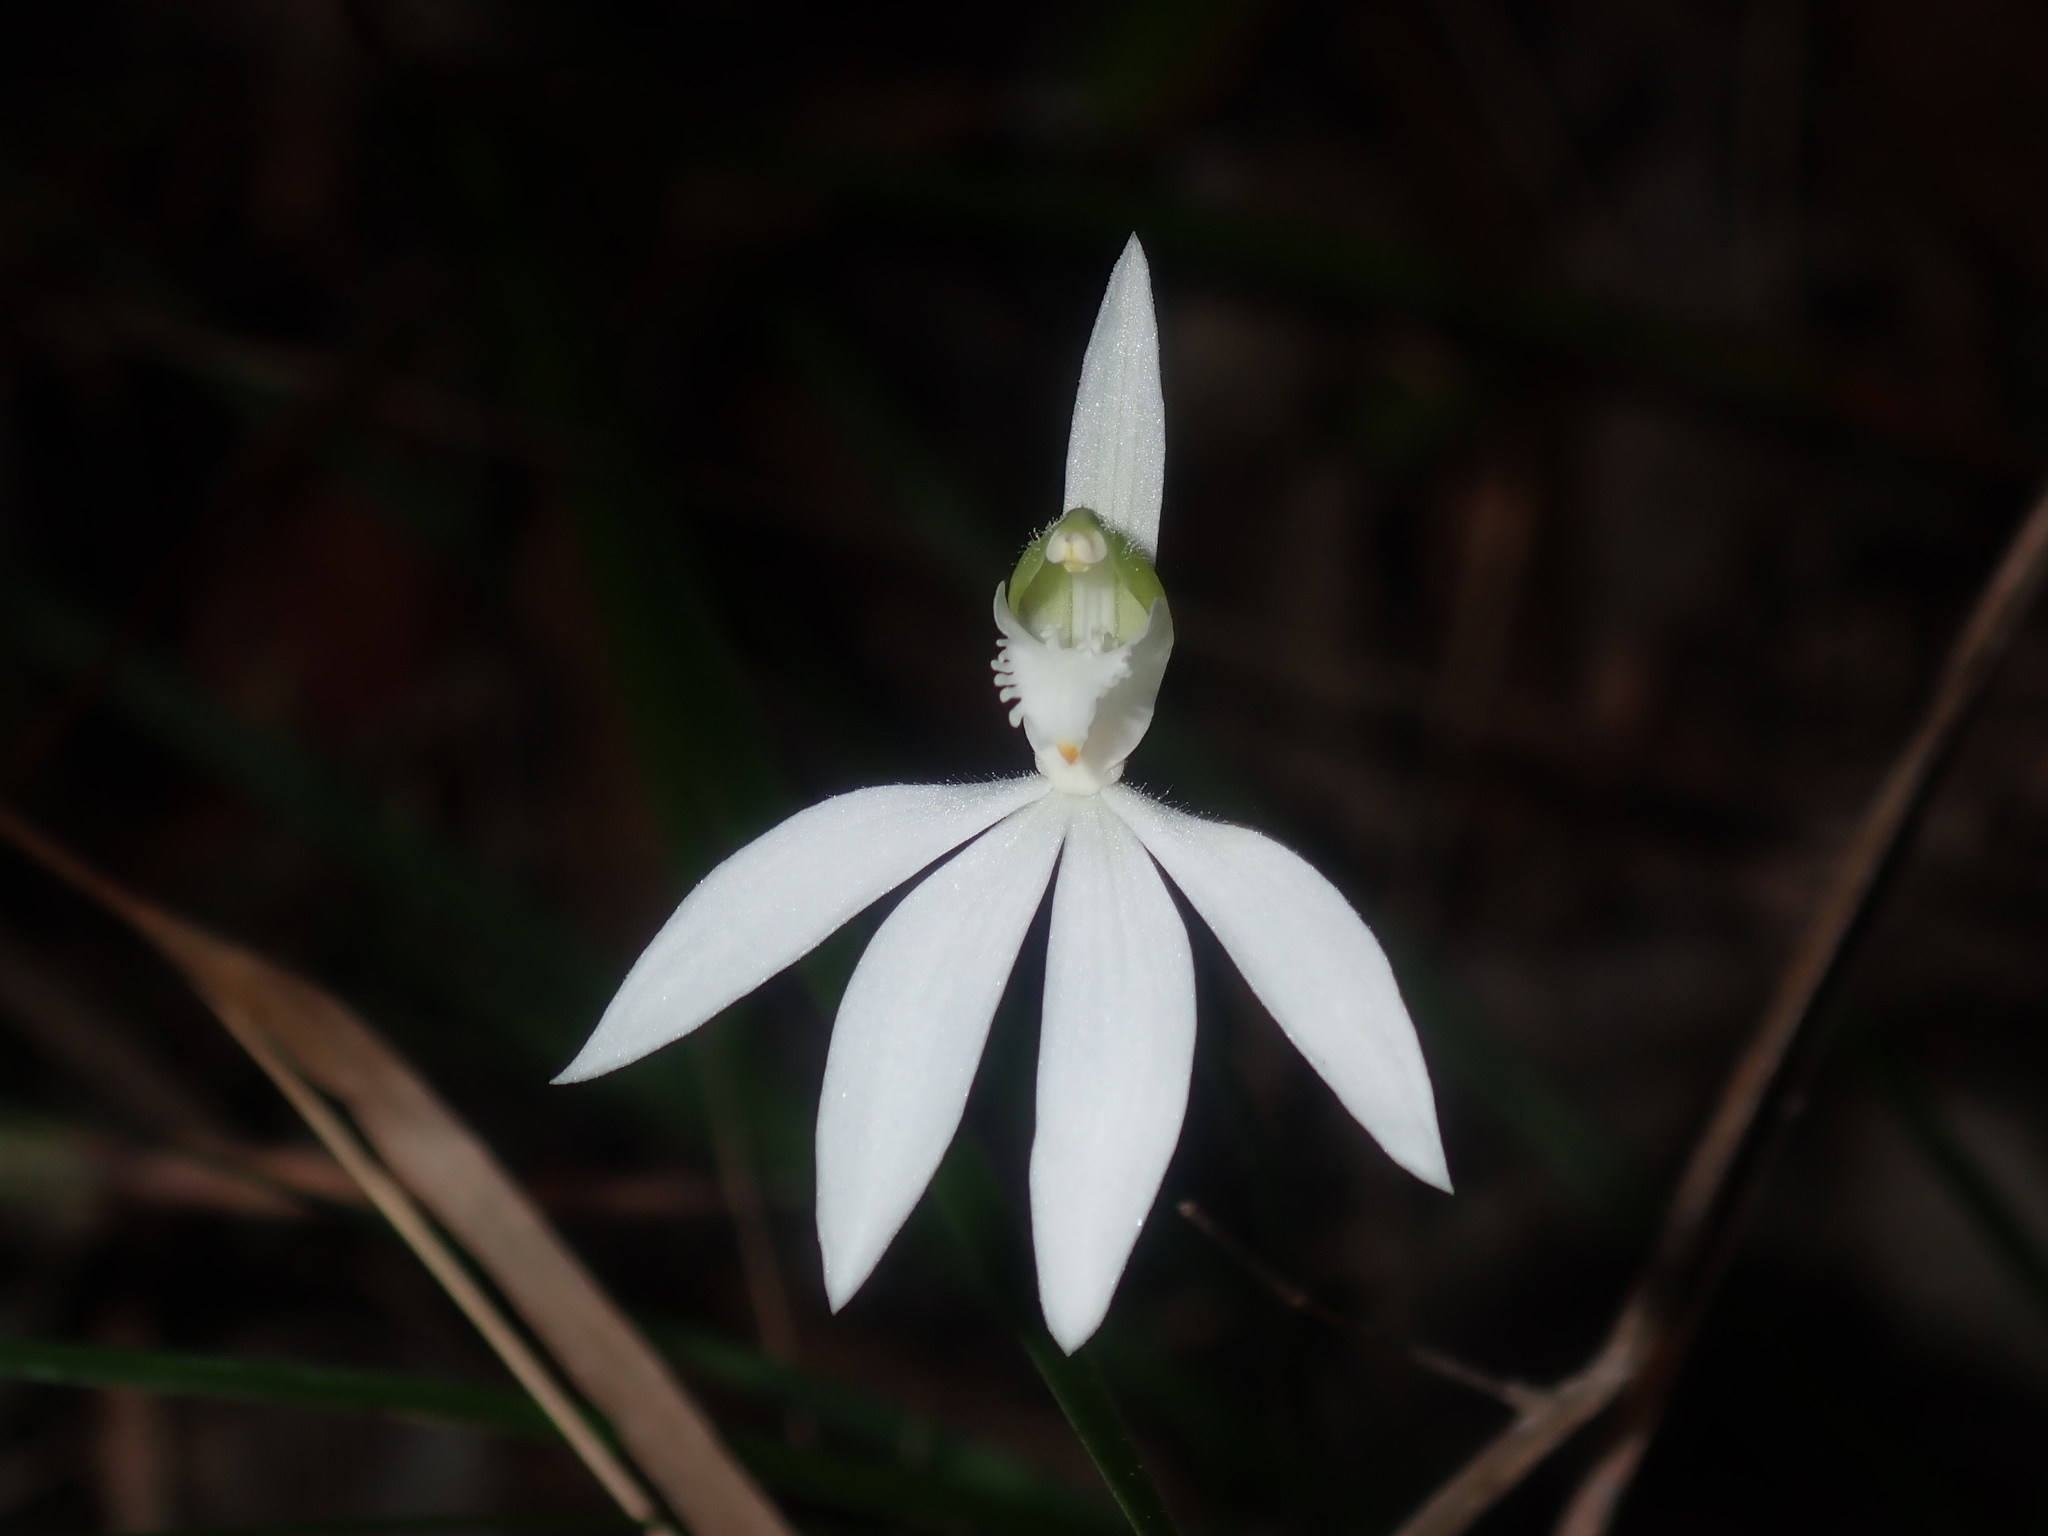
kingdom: Plantae
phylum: Tracheophyta
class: Liliopsida
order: Asparagales
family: Orchidaceae
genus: Caladenia
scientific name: Caladenia picta
